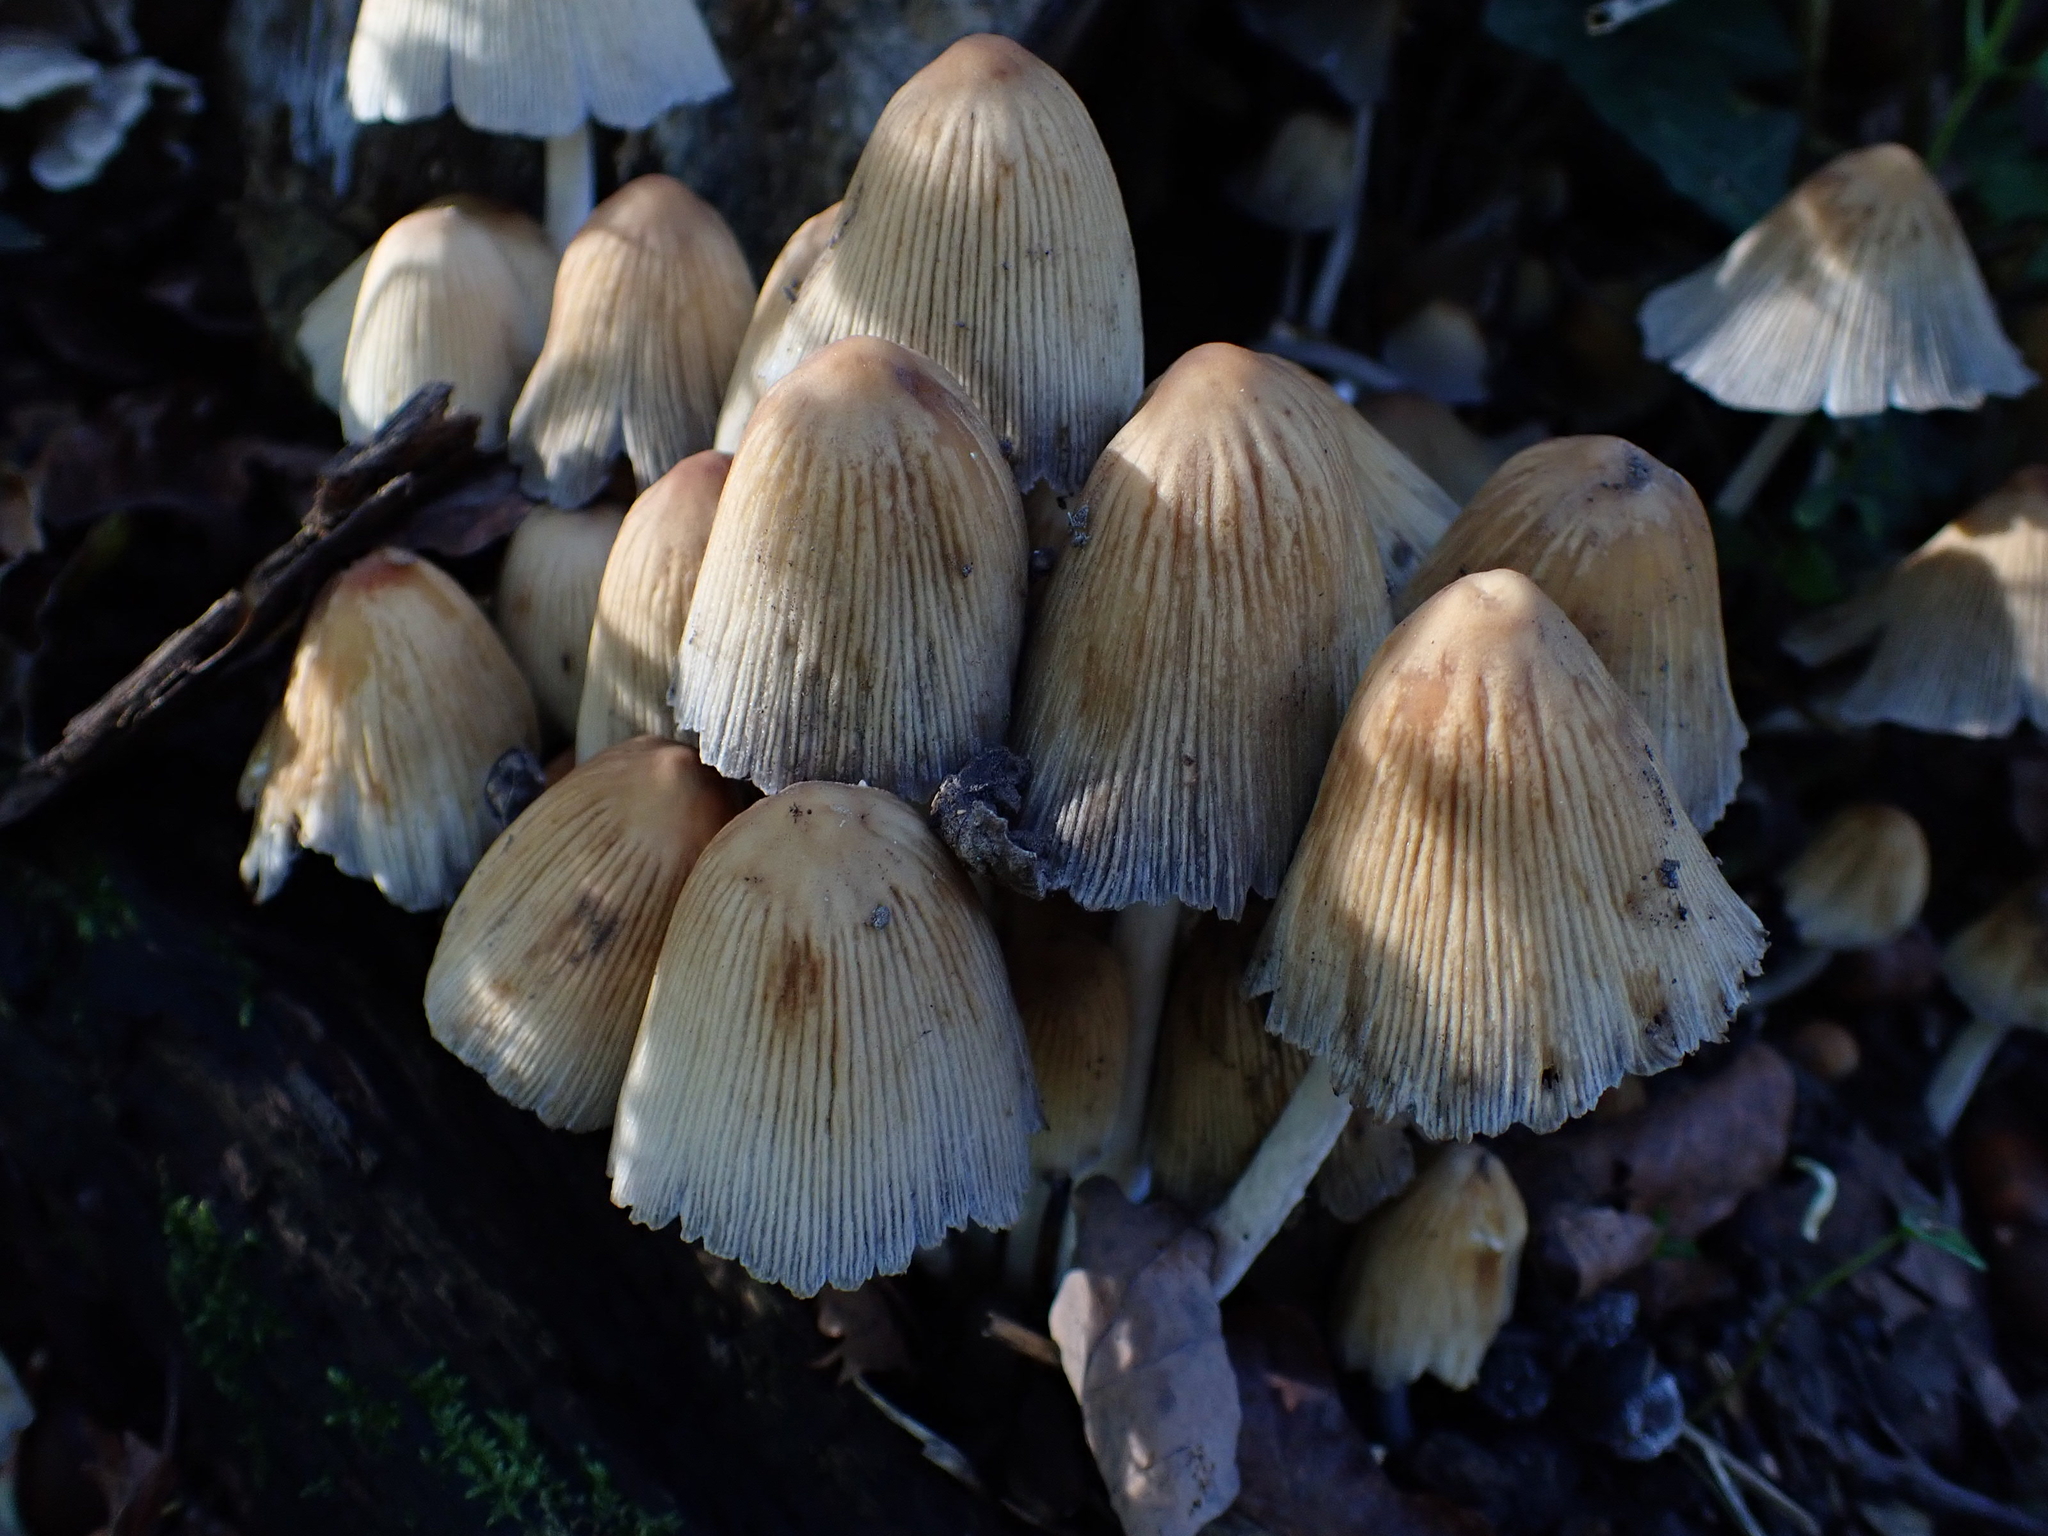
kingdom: Fungi
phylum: Basidiomycota
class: Agaricomycetes
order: Agaricales
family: Psathyrellaceae
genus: Coprinellus
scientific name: Coprinellus micaceus
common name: Glistening ink-cap
